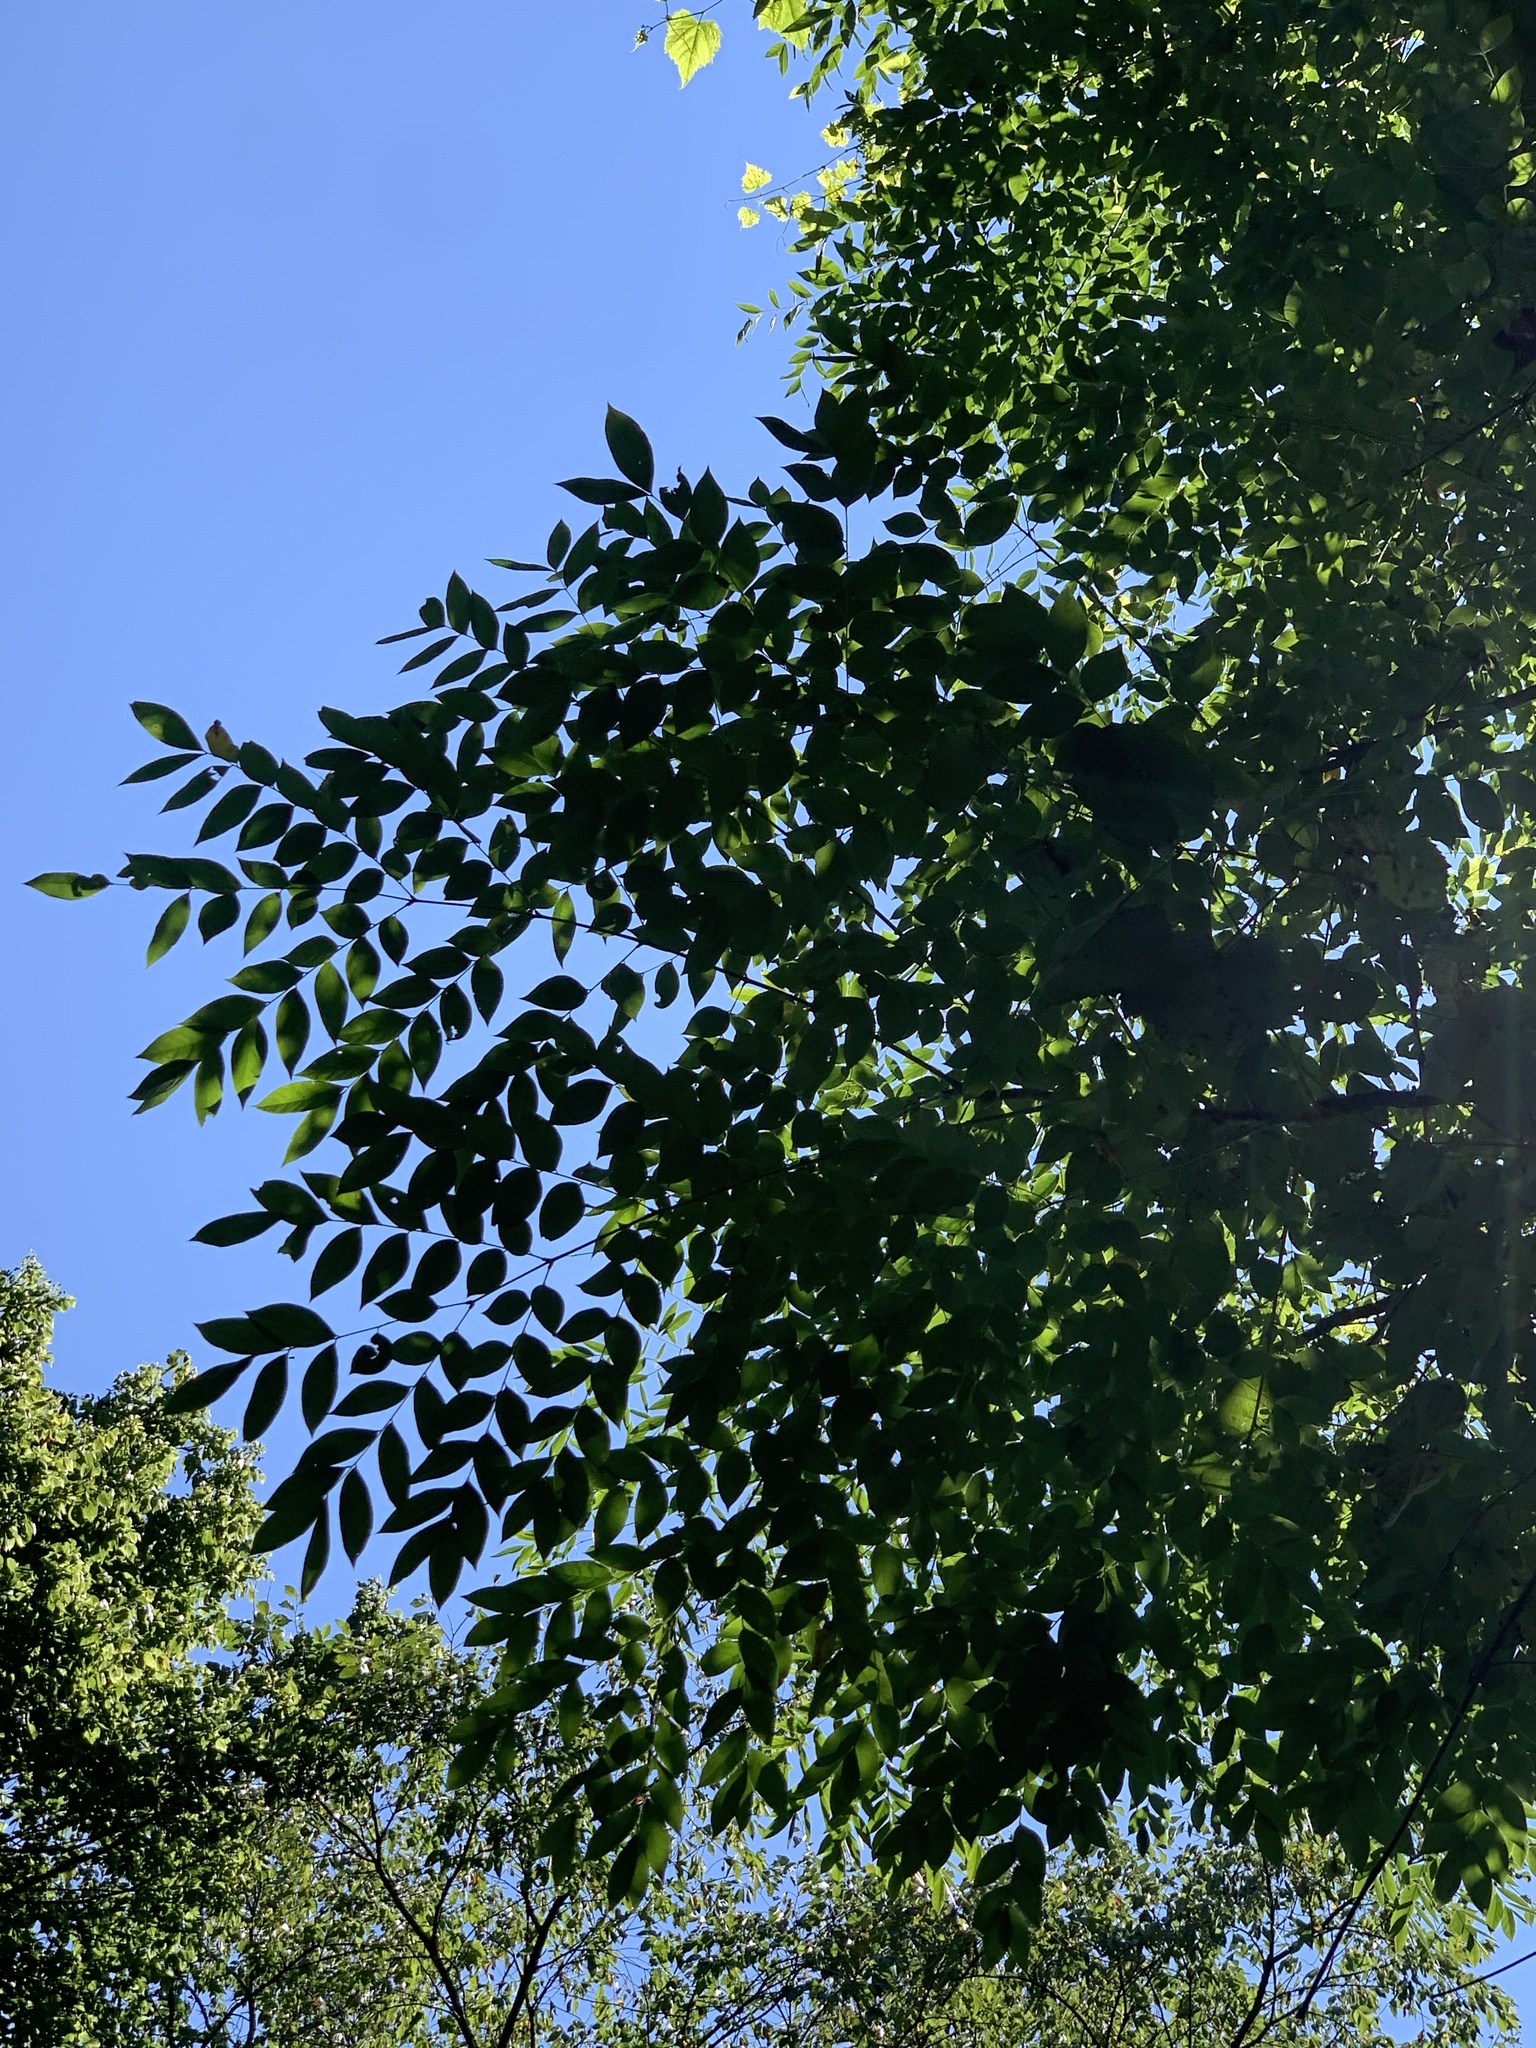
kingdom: Plantae
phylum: Tracheophyta
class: Magnoliopsida
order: Fabales
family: Fabaceae
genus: Gymnocladus
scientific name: Gymnocladus dioicus
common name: Kentucky coffee-tree
